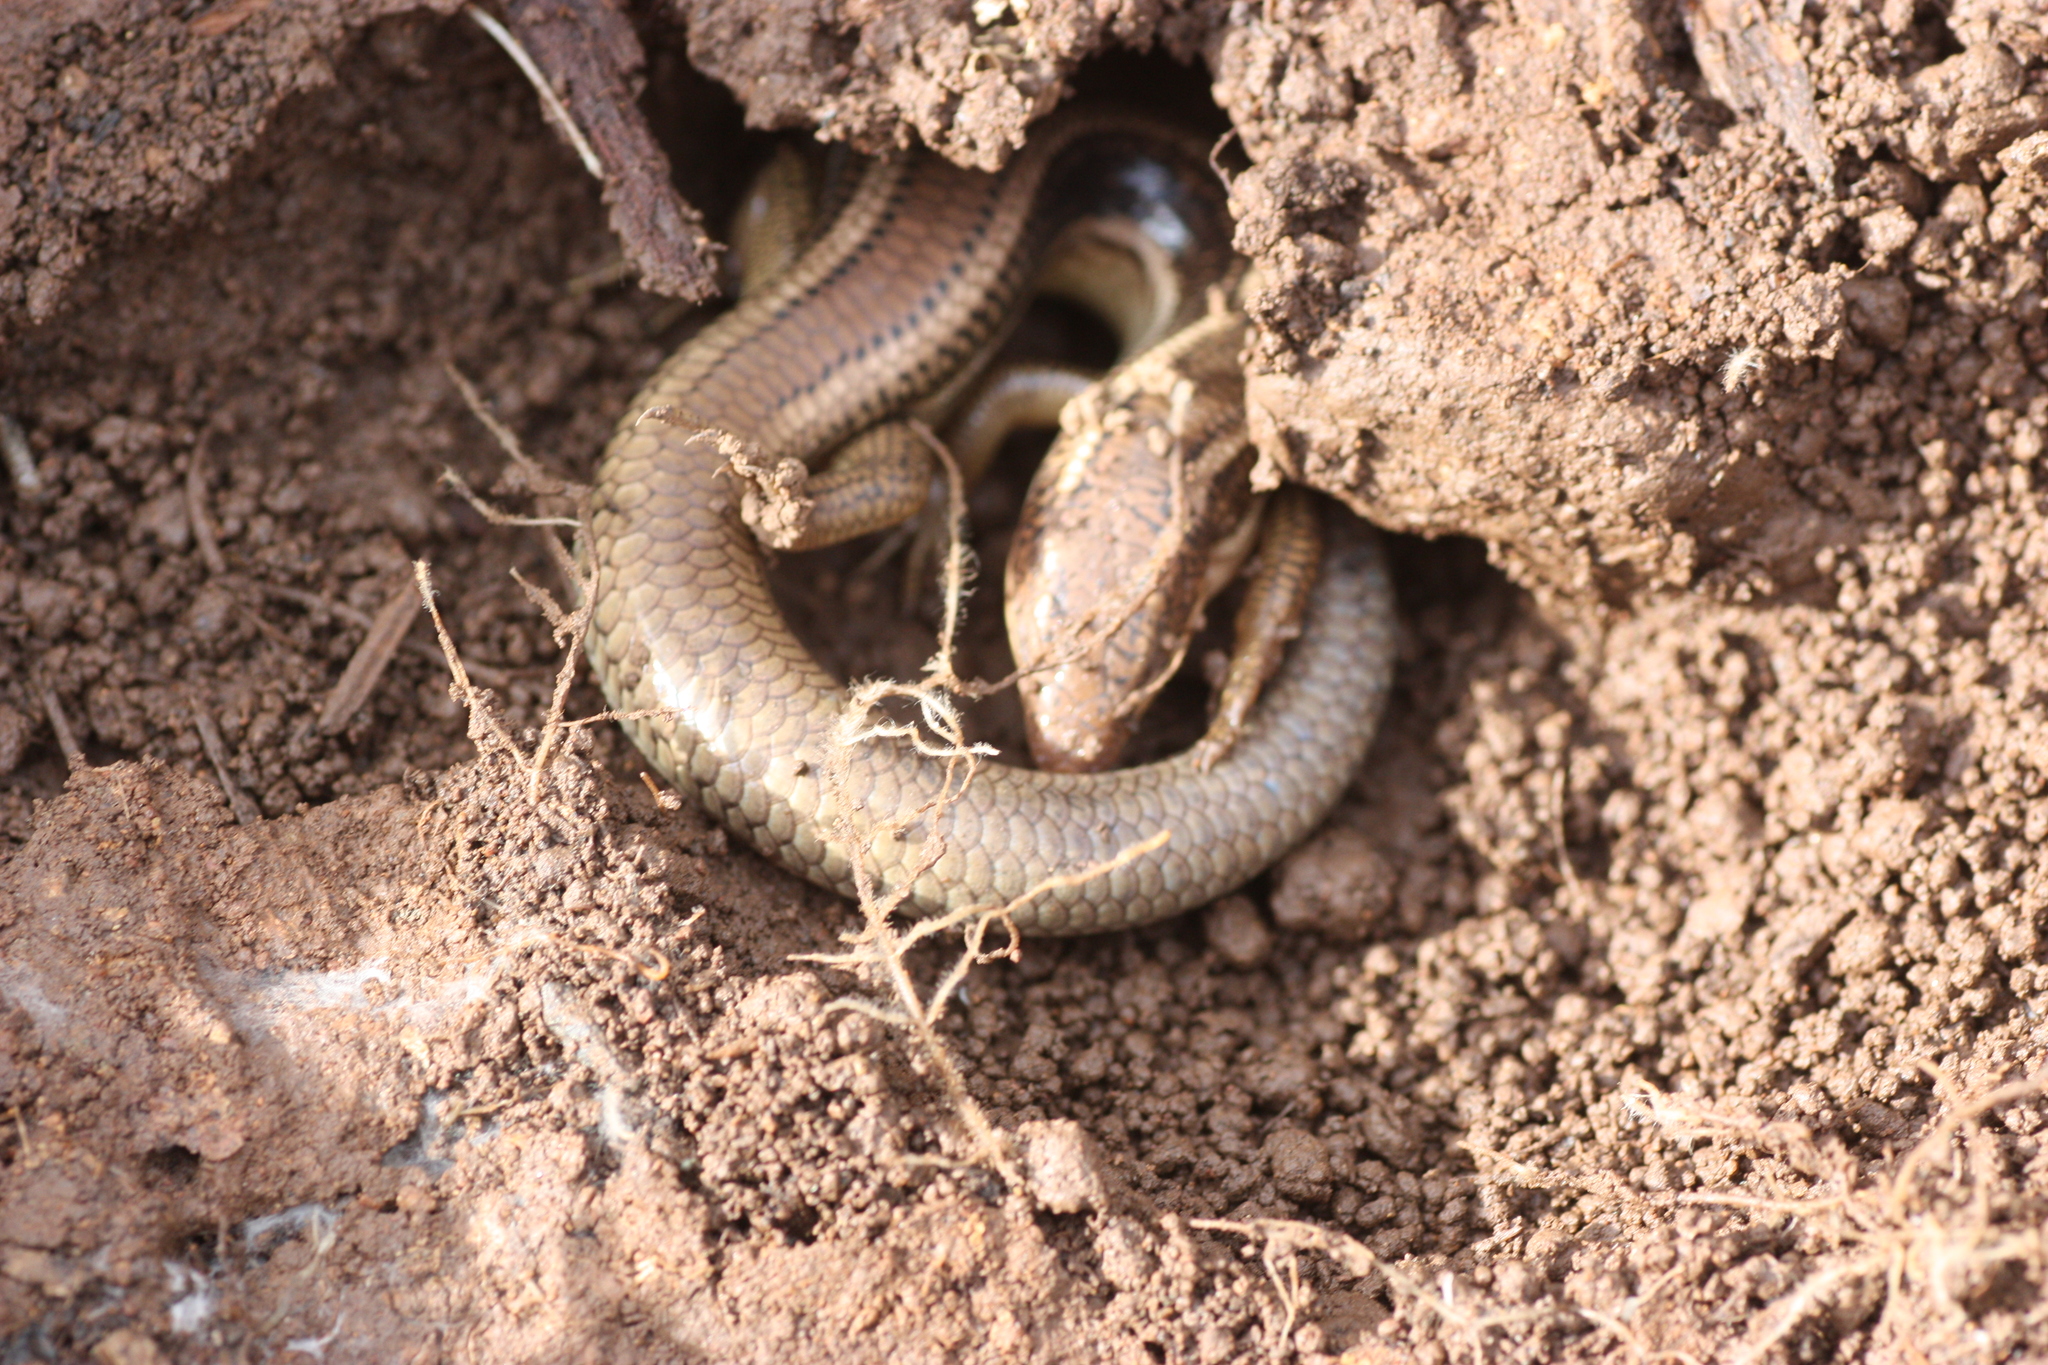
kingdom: Animalia
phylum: Chordata
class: Squamata
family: Scincidae
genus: Plestiodon
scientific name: Plestiodon gilberti
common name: Gilbert's skink
